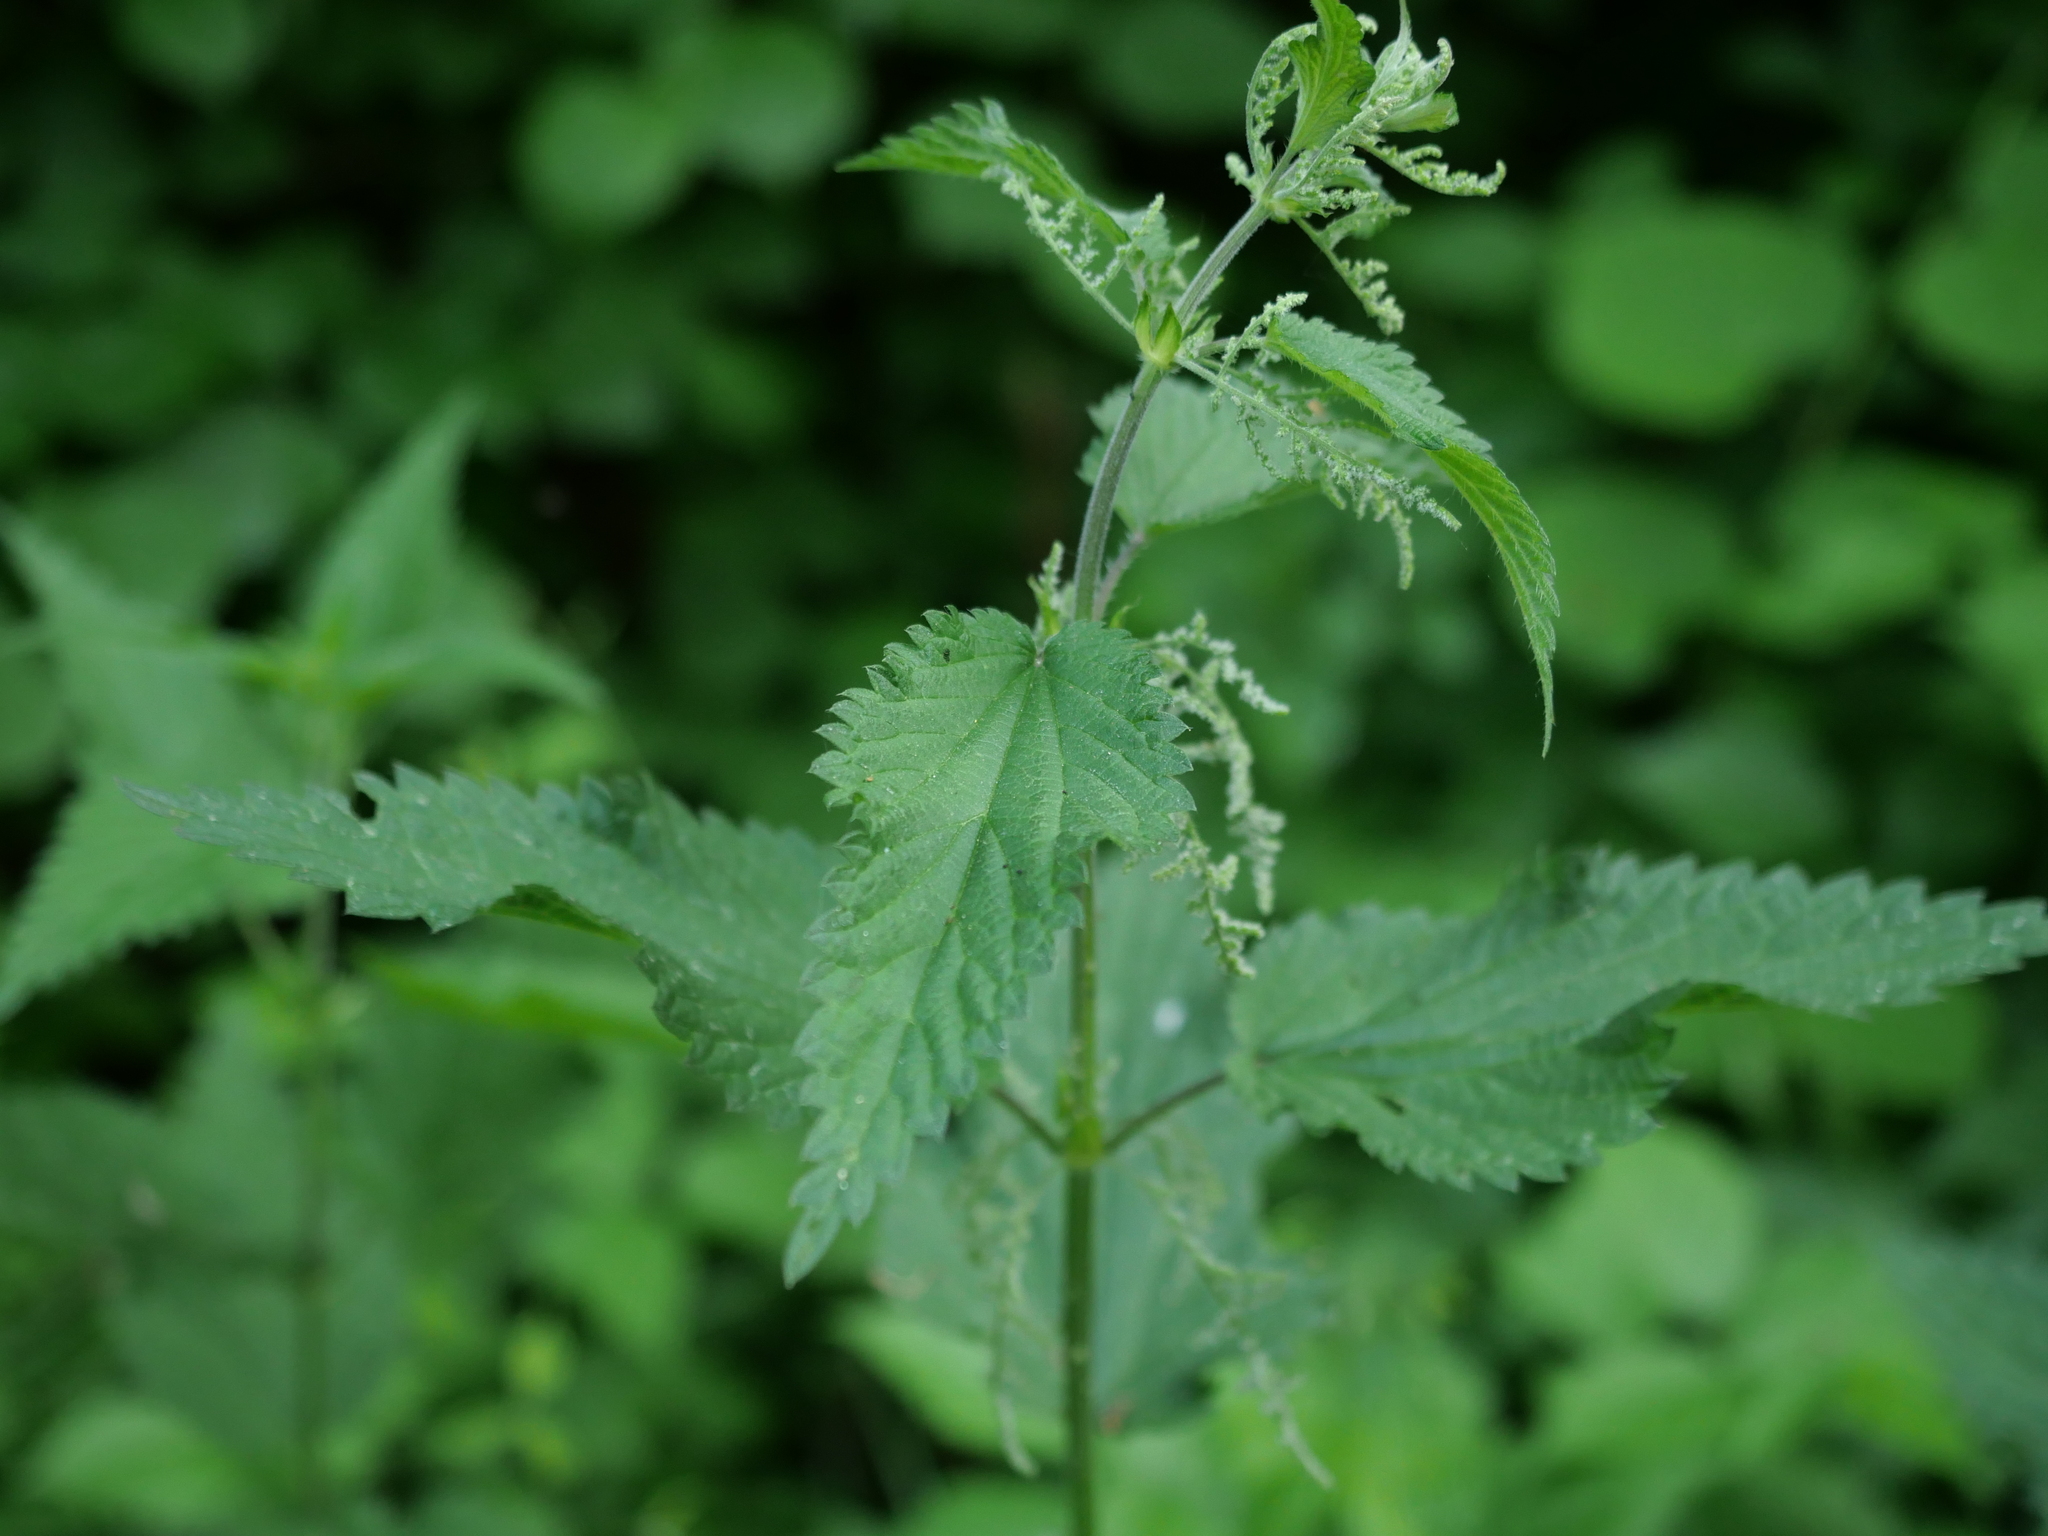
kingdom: Plantae
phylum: Tracheophyta
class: Magnoliopsida
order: Rosales
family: Urticaceae
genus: Urtica
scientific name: Urtica dioica
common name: Common nettle
